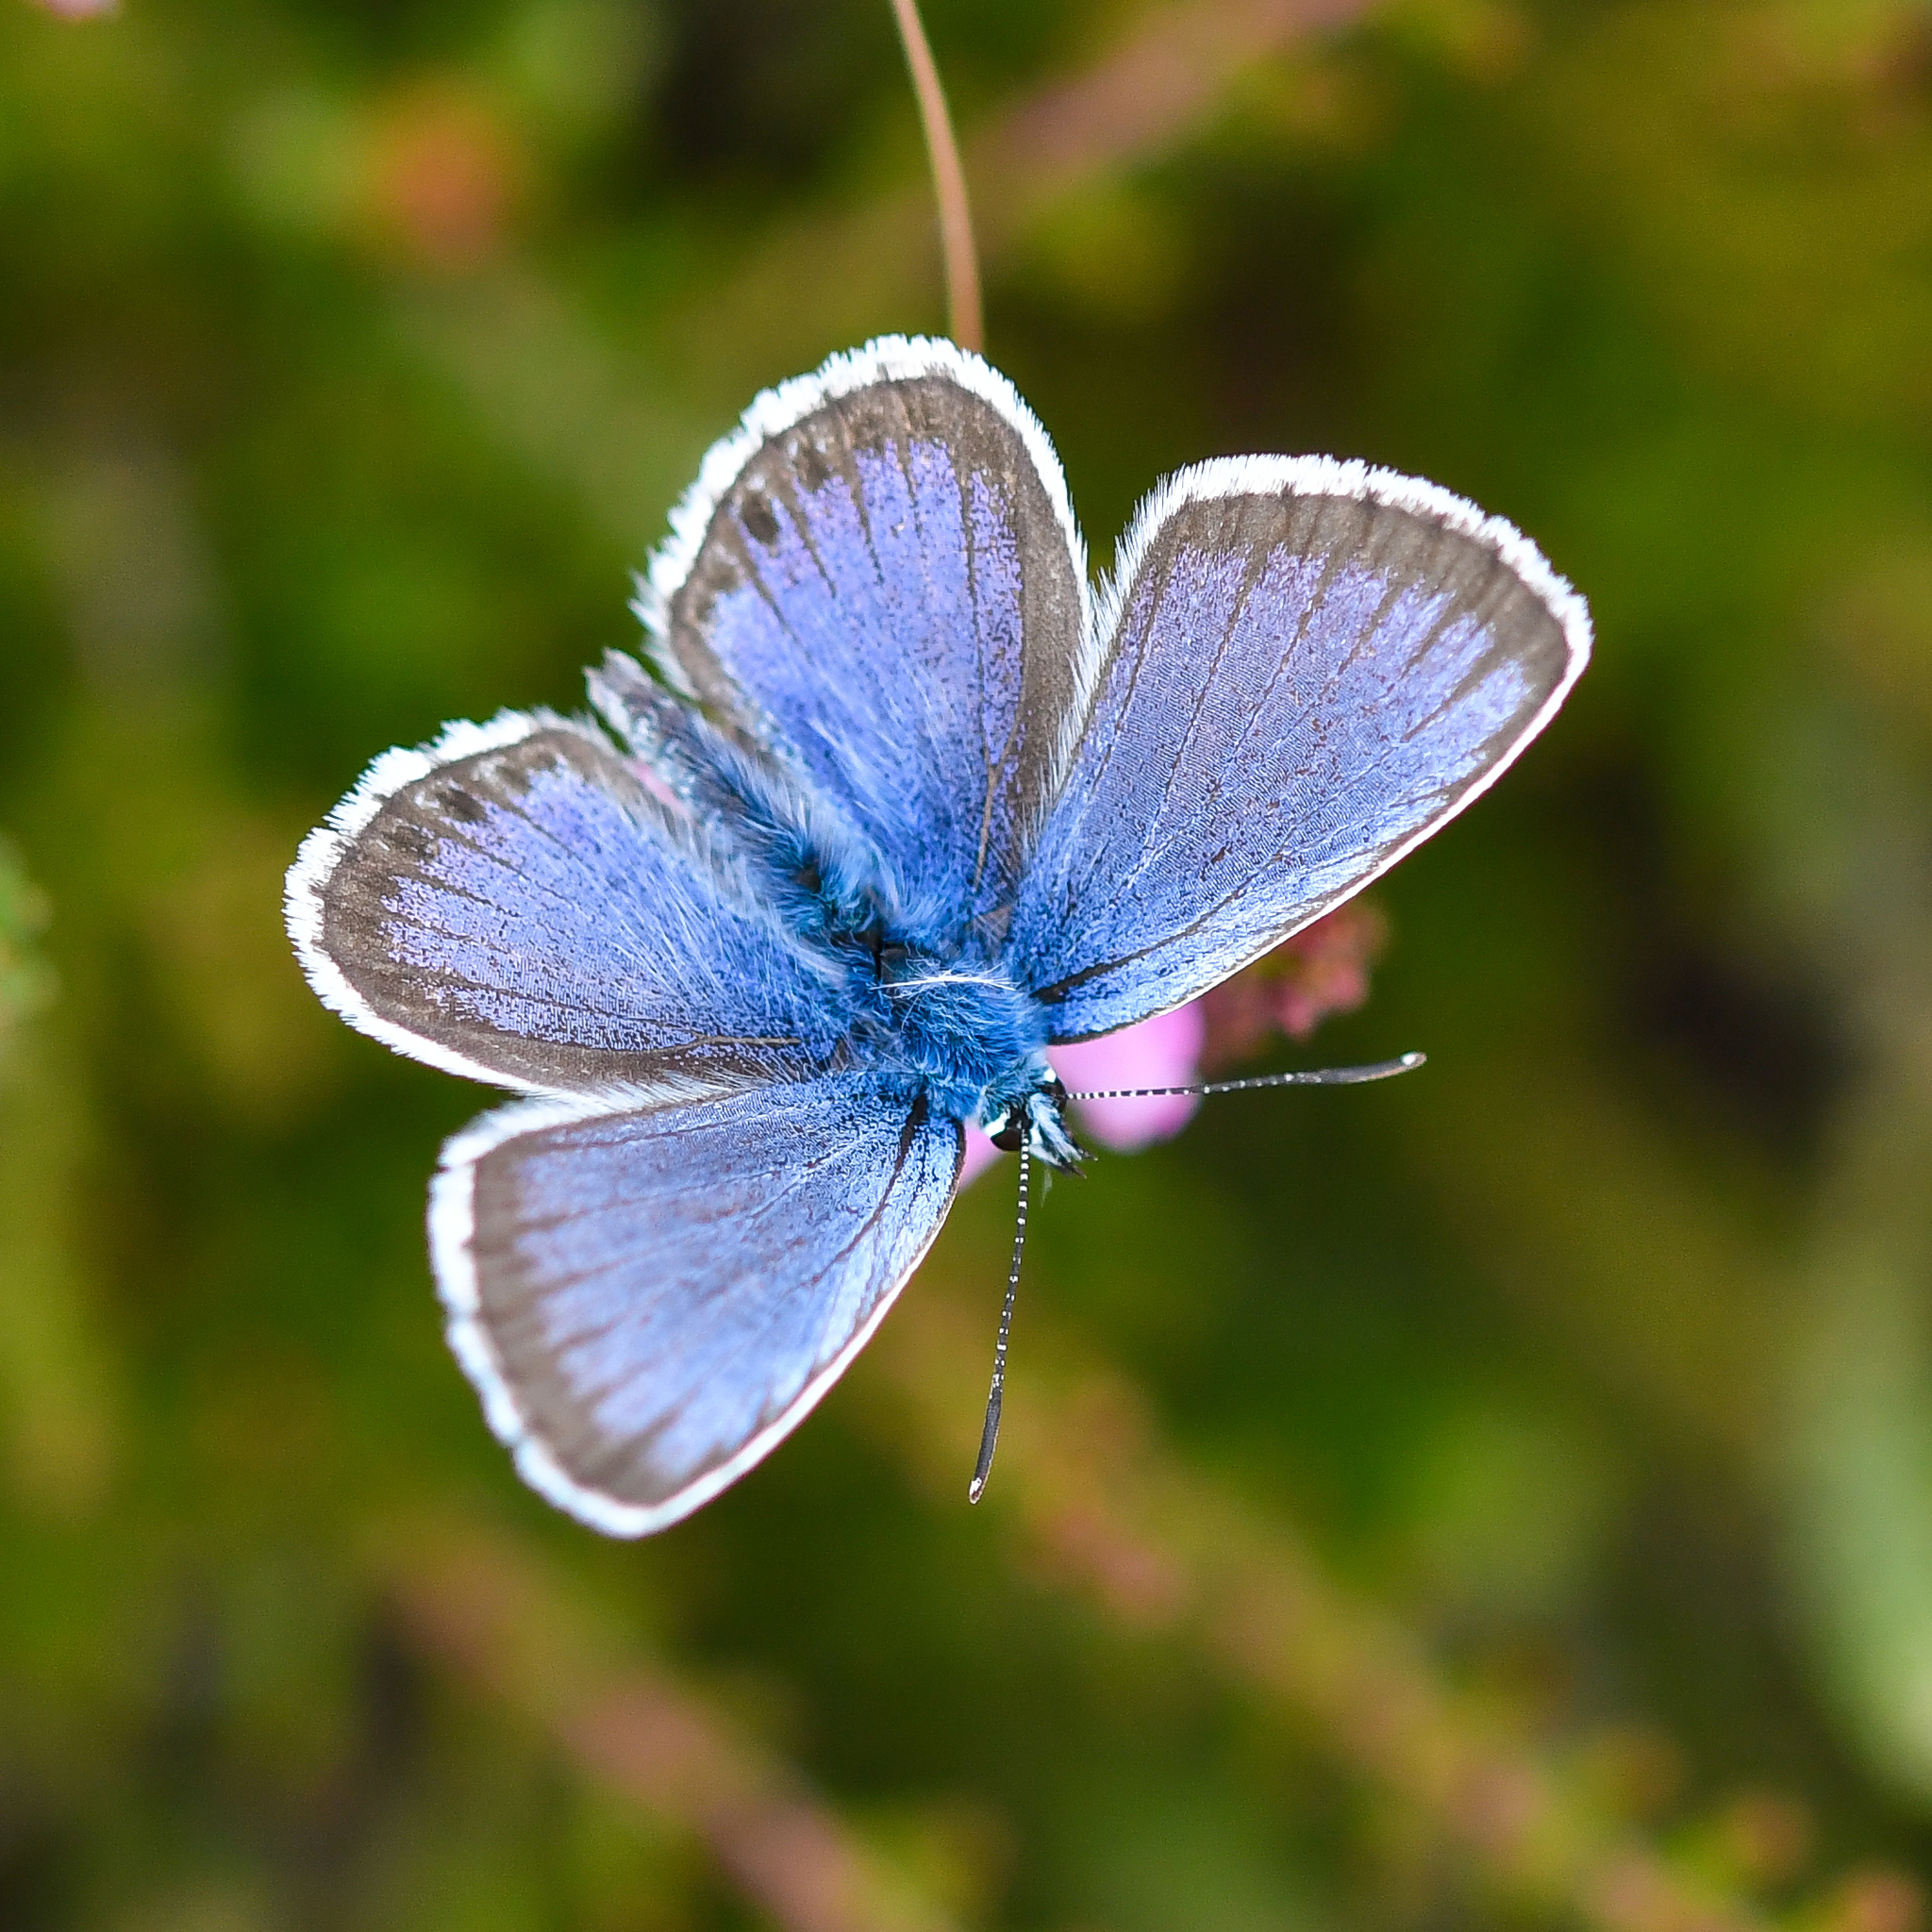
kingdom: Animalia
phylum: Arthropoda
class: Insecta
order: Lepidoptera
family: Lycaenidae
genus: Plebejus
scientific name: Plebejus argus
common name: Silver-studded blue
